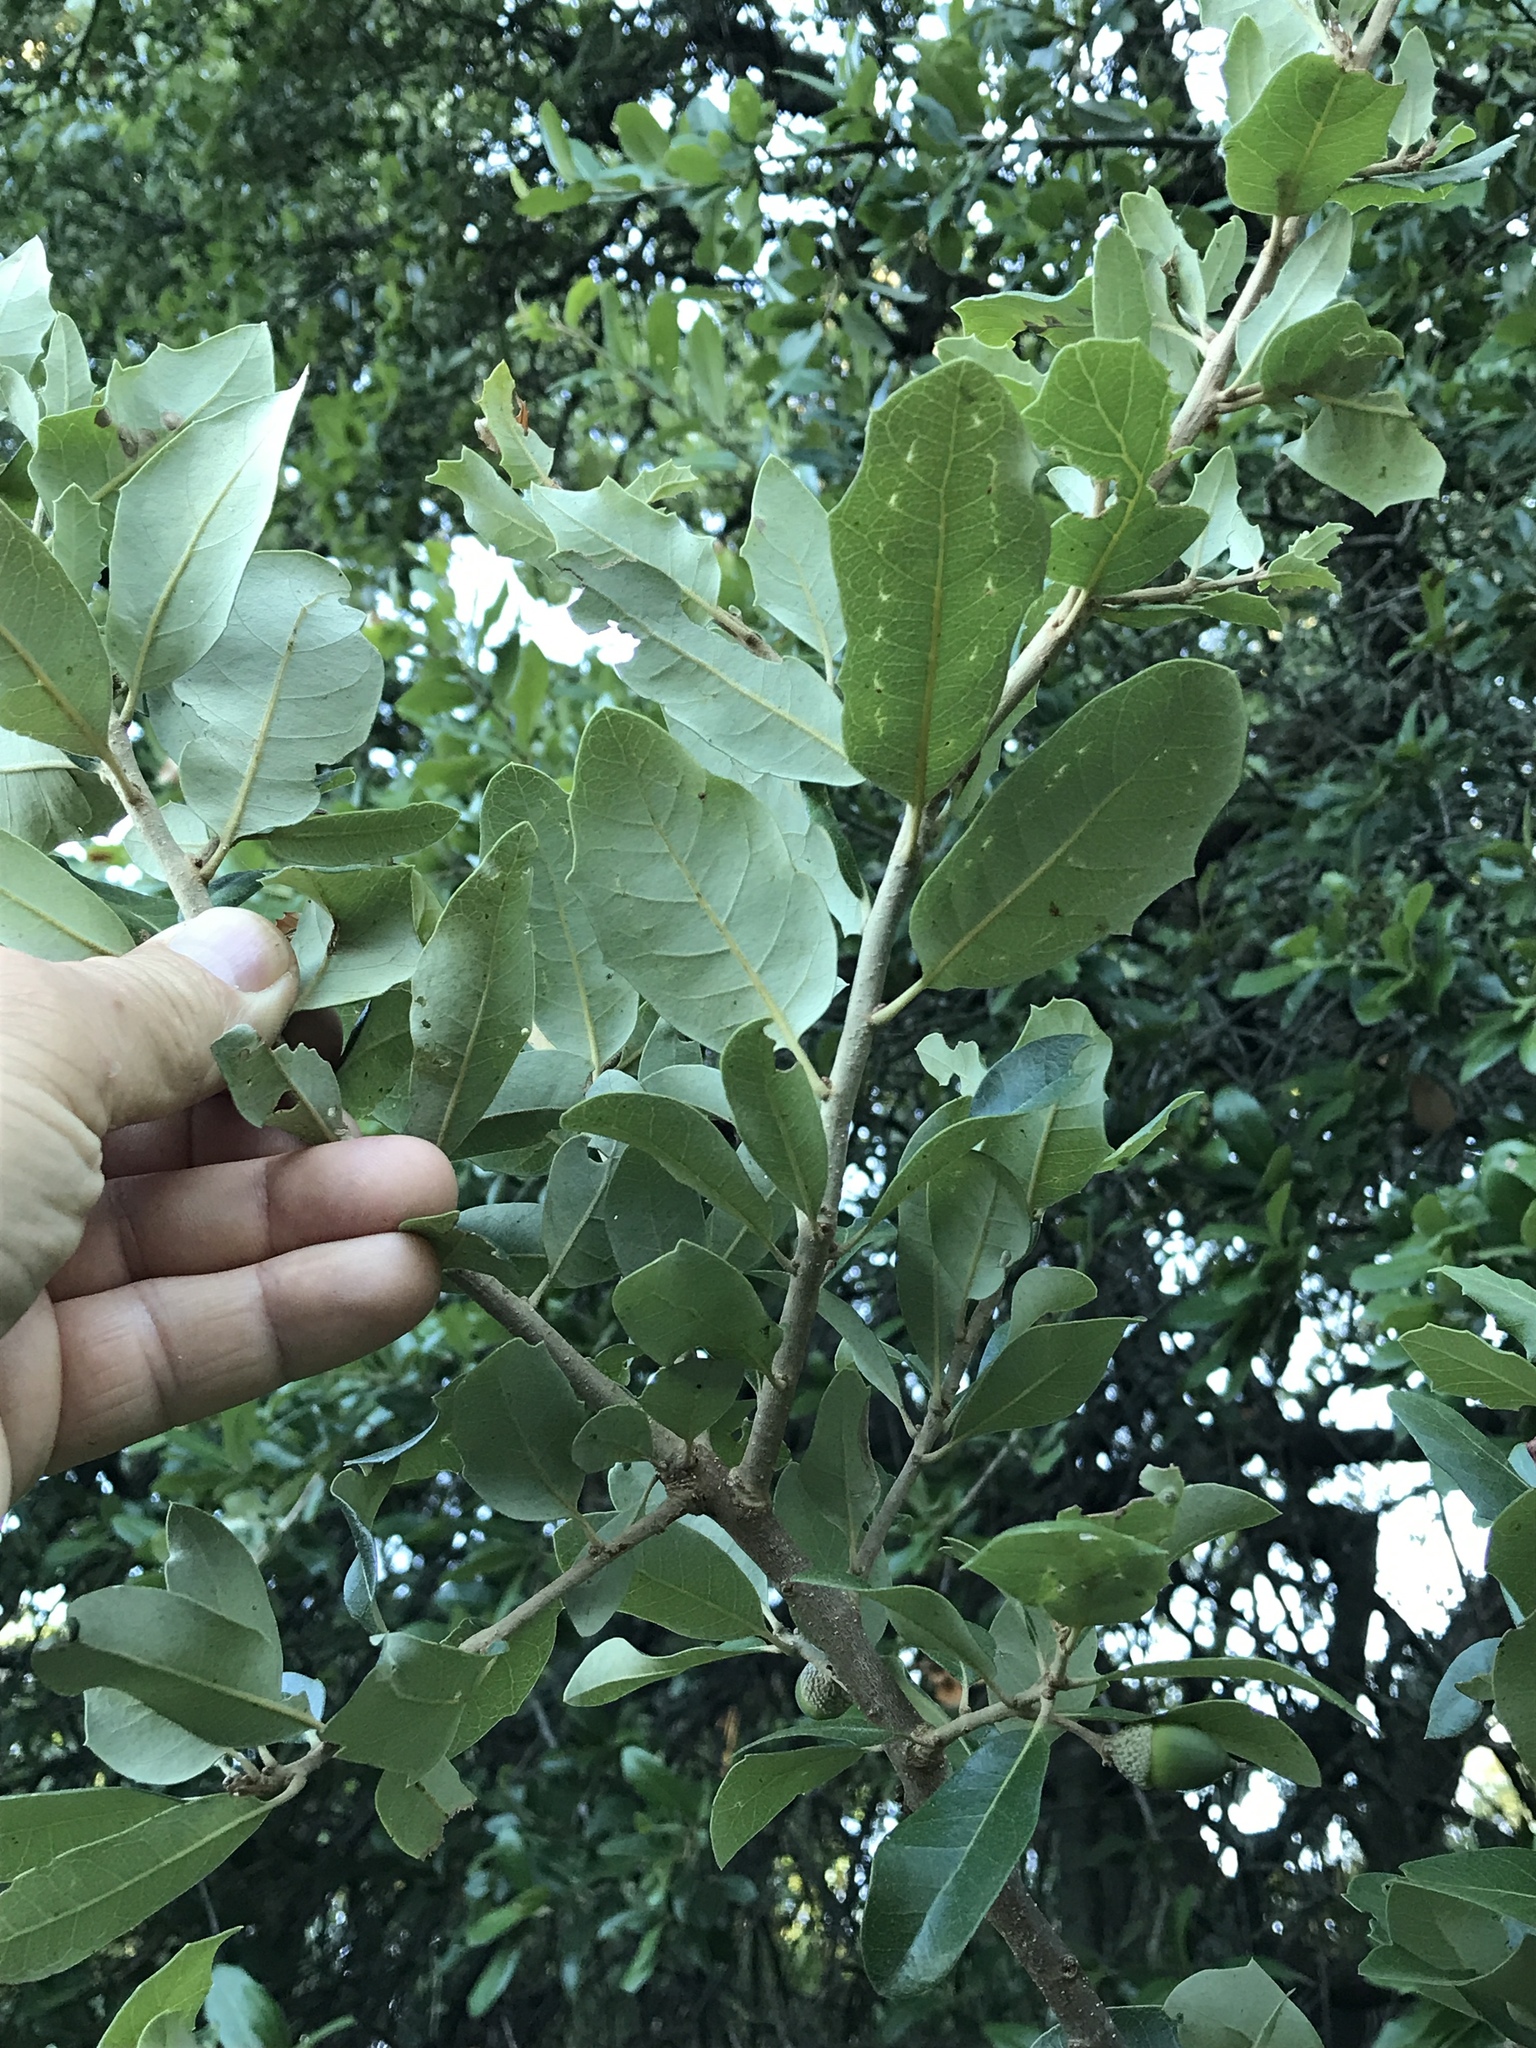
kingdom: Plantae
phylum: Tracheophyta
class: Magnoliopsida
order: Fagales
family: Fagaceae
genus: Quercus
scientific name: Quercus fusiformis
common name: Texas live oak
